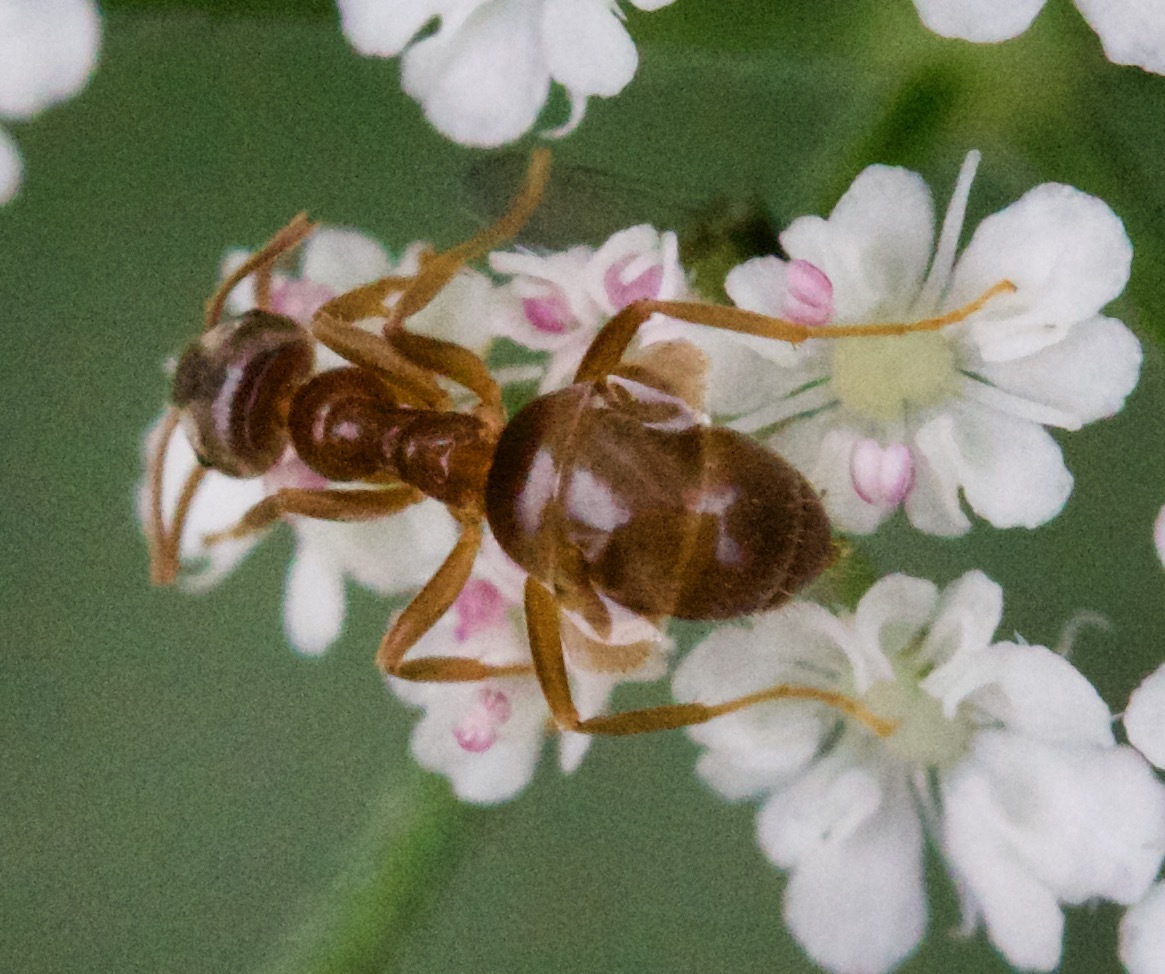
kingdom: Animalia
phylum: Arthropoda
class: Insecta
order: Hymenoptera
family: Formicidae
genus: Prenolepis
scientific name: Prenolepis imparis
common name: Small honey ant
